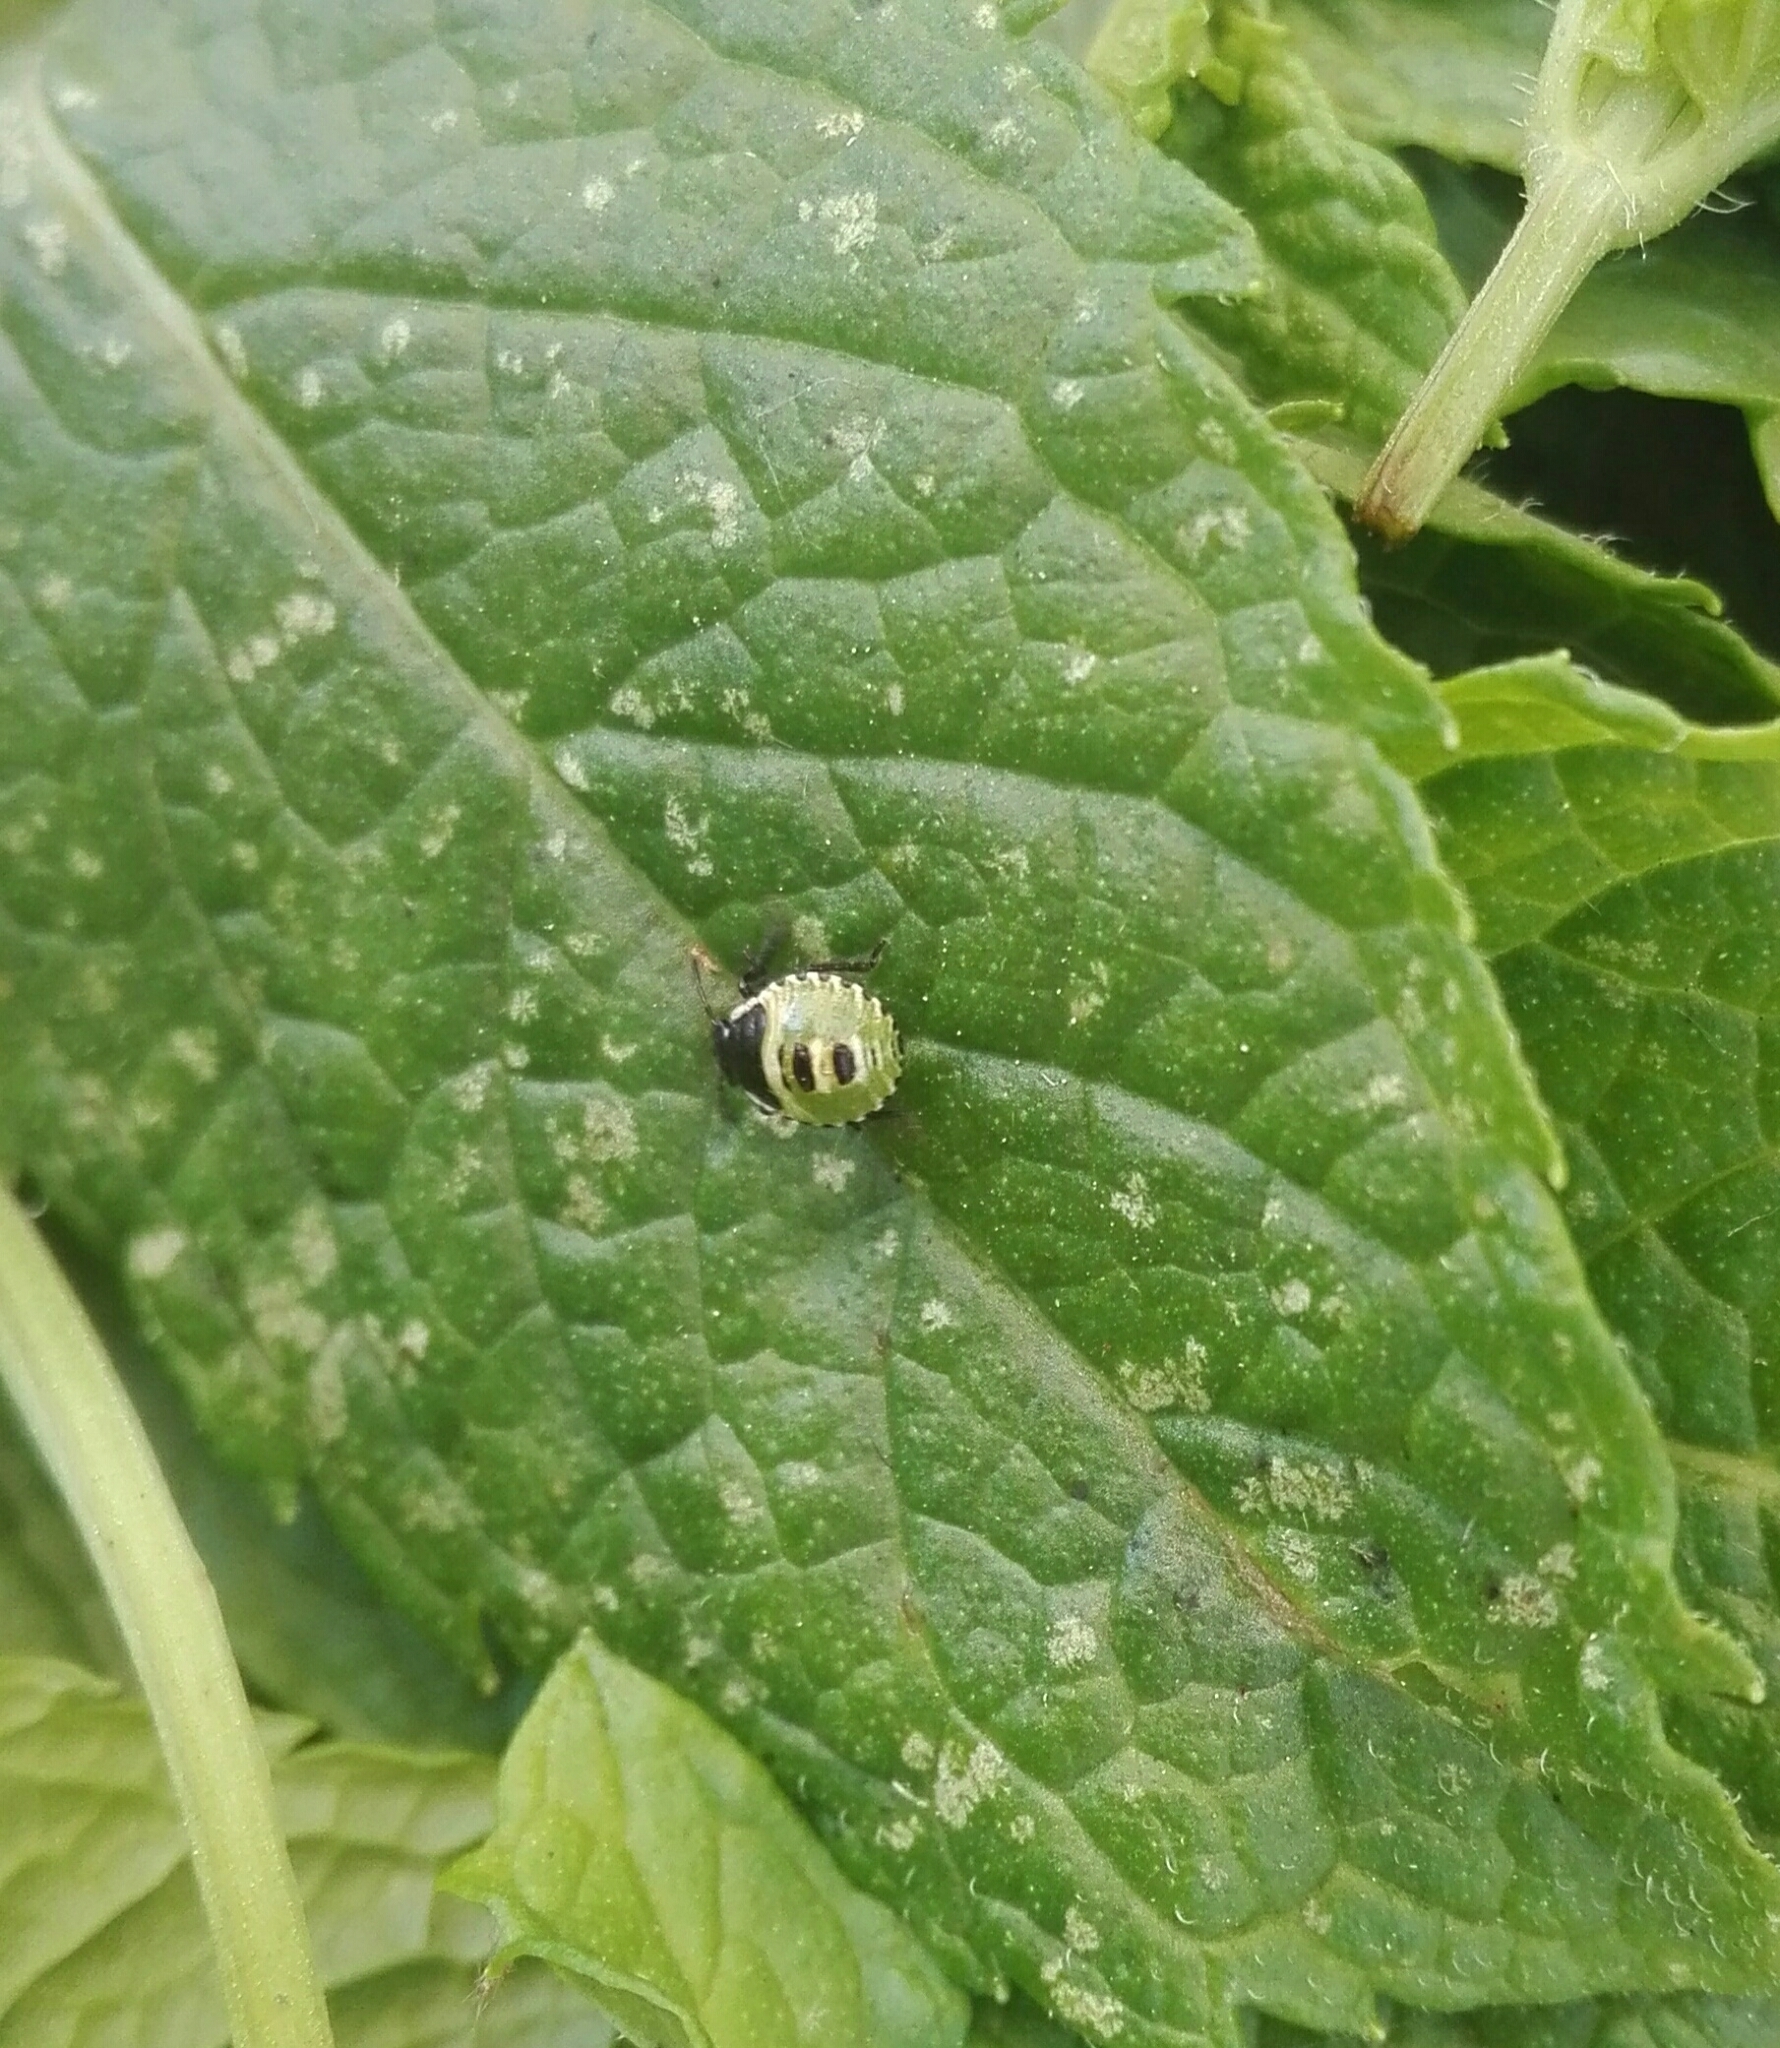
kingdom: Animalia
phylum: Arthropoda
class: Insecta
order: Hemiptera
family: Pentatomidae
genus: Palomena
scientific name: Palomena prasina
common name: Green shieldbug
